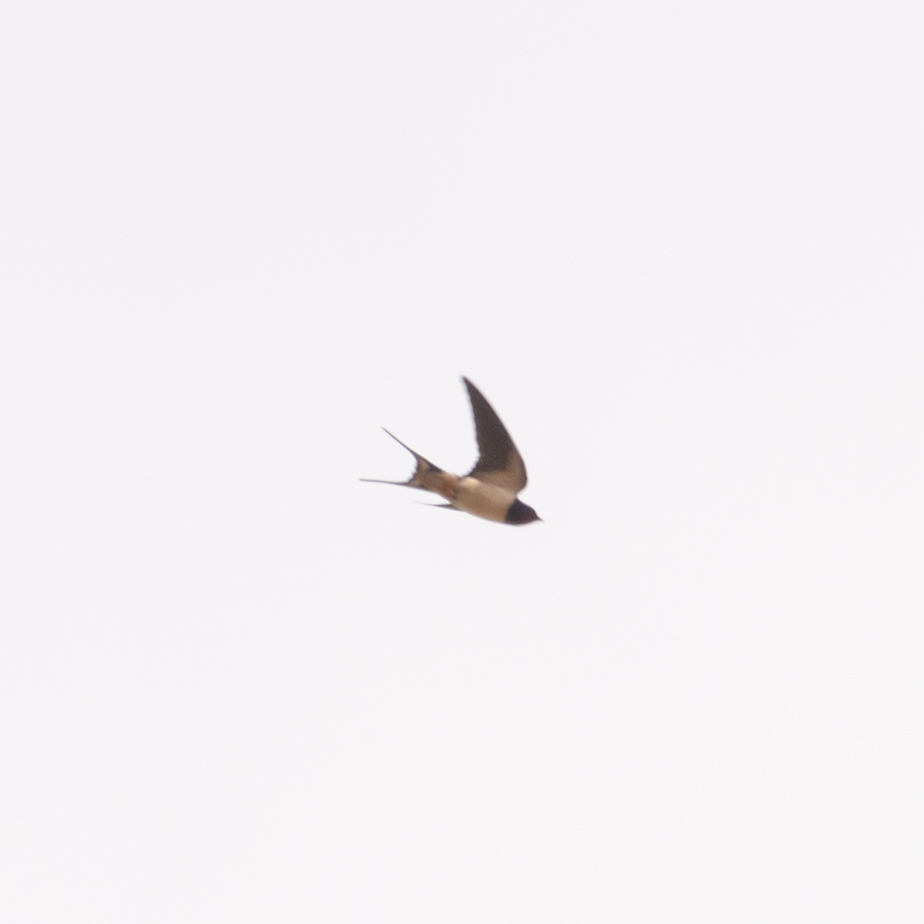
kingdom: Animalia
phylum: Chordata
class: Aves
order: Passeriformes
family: Hirundinidae
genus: Hirundo
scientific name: Hirundo rustica
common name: Barn swallow
